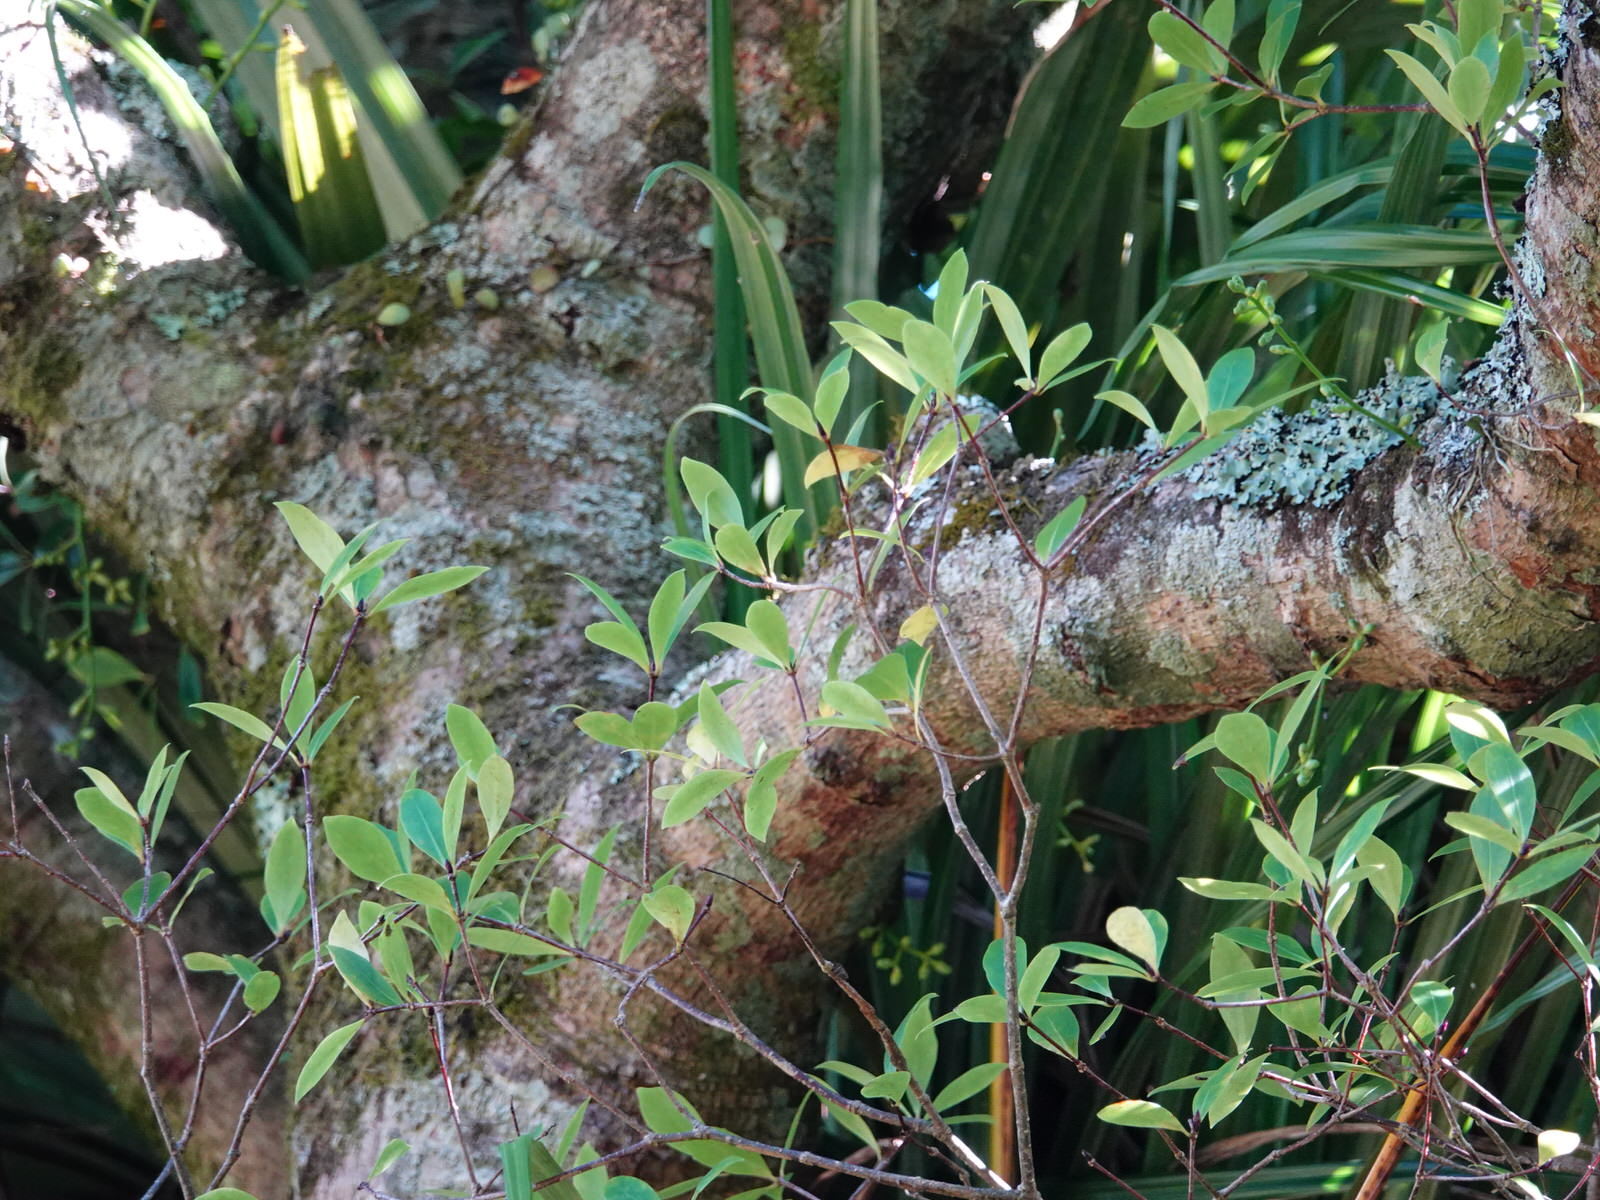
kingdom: Plantae
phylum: Tracheophyta
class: Magnoliopsida
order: Apiales
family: Pittosporaceae
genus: Pittosporum
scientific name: Pittosporum cornifolium
